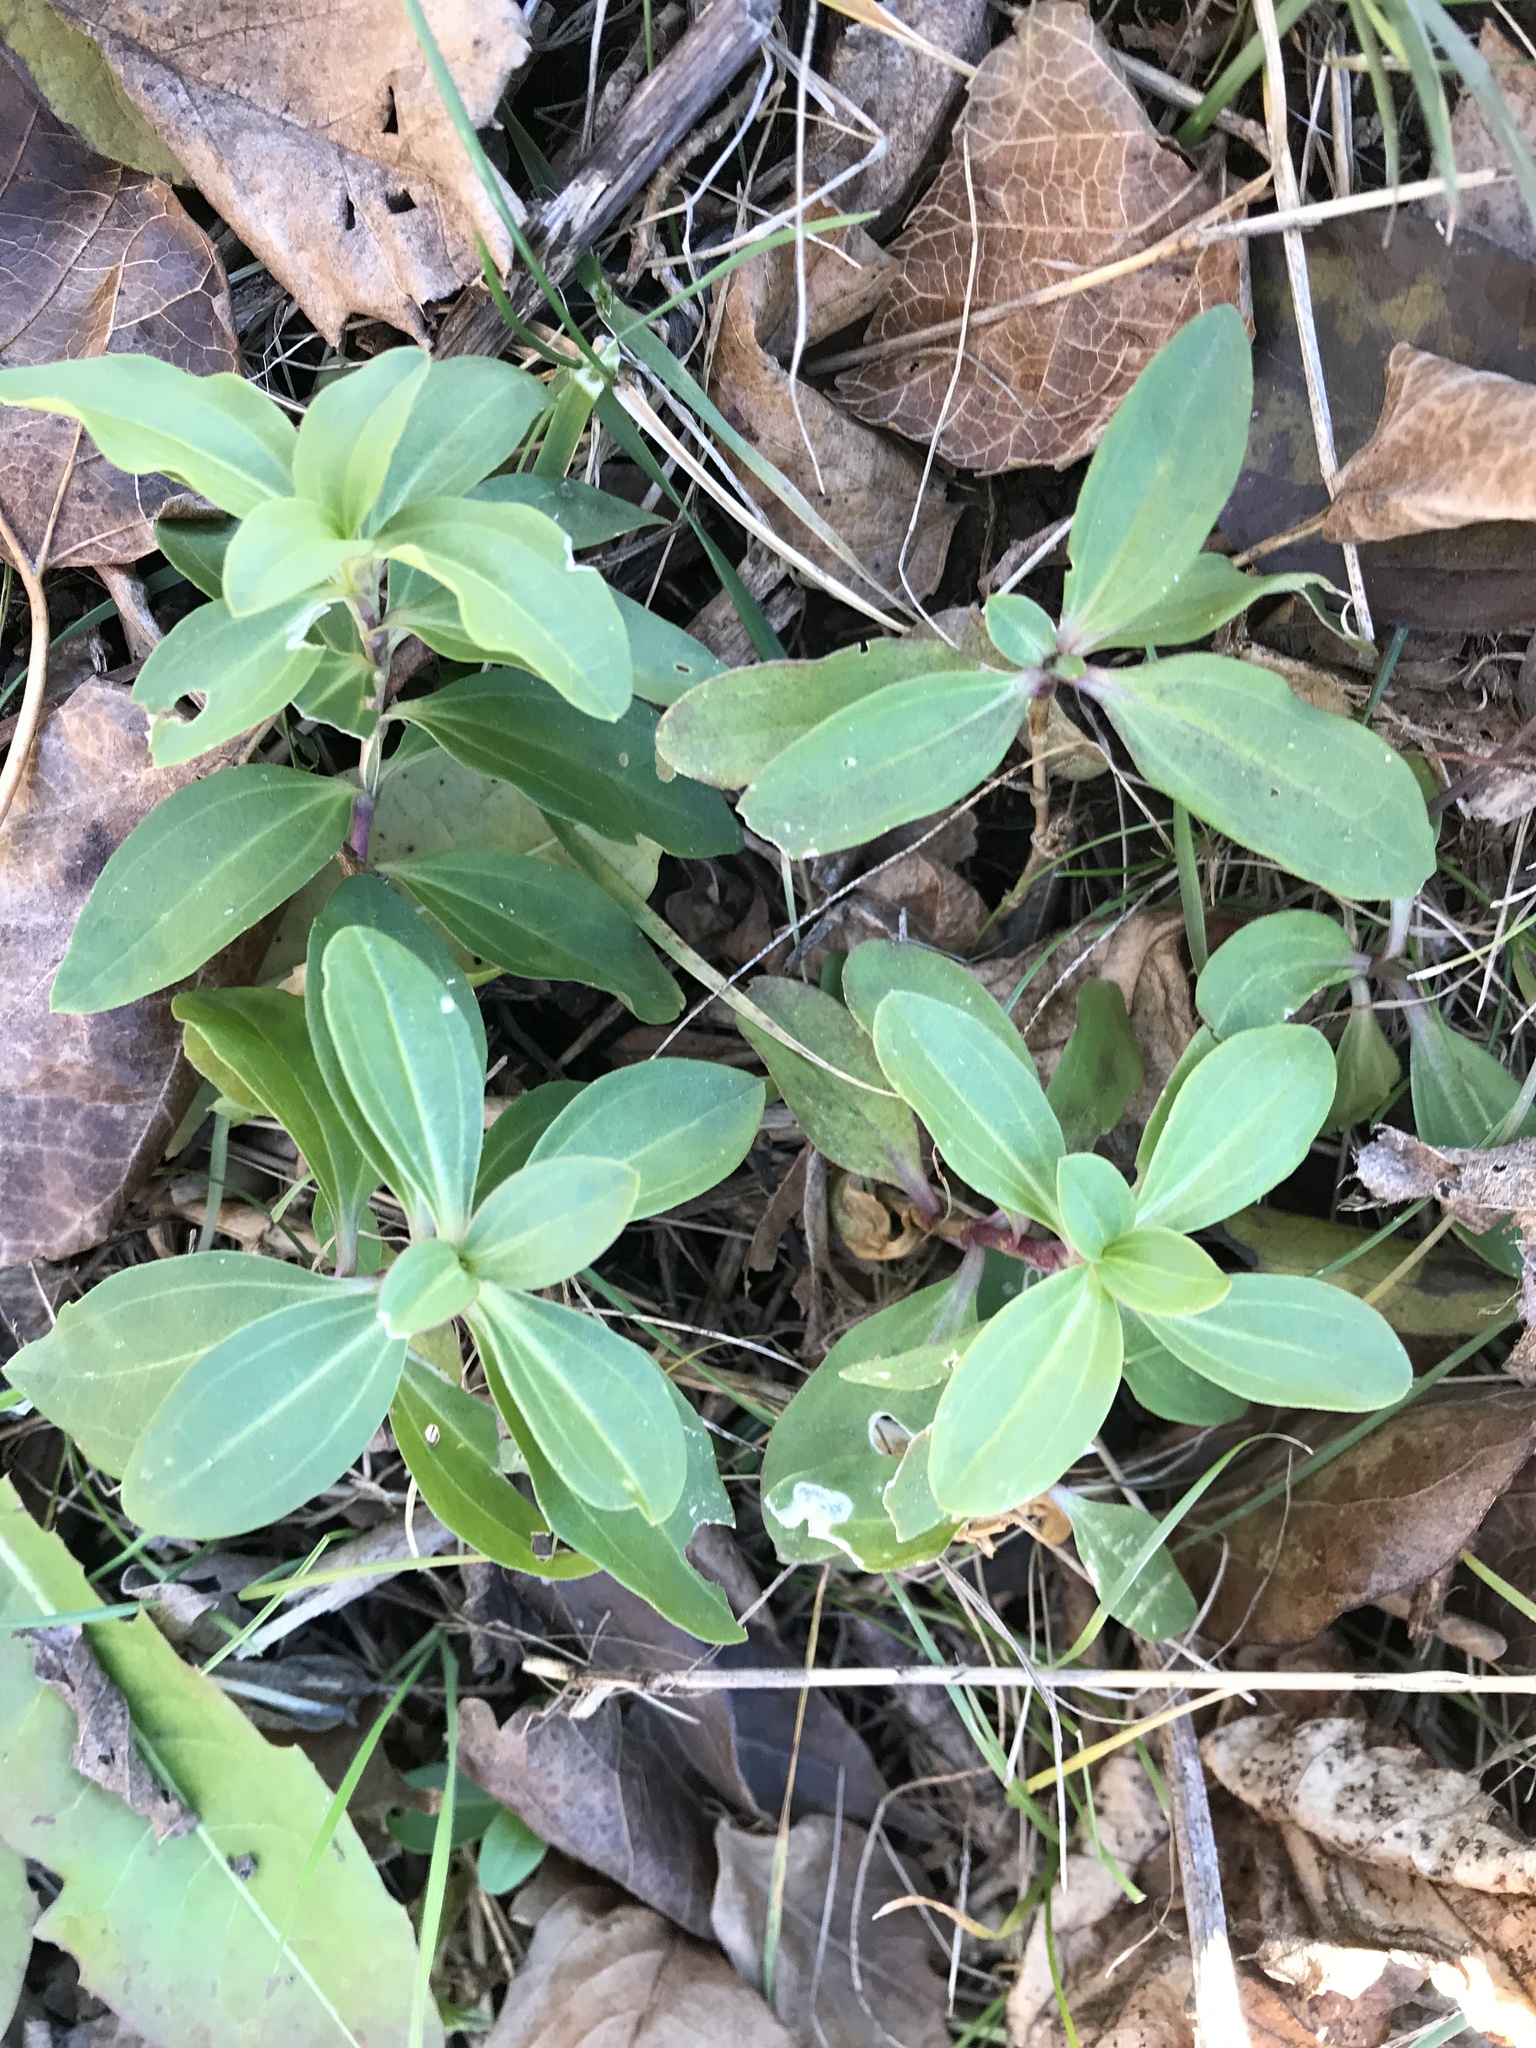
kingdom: Plantae
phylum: Tracheophyta
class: Magnoliopsida
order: Caryophyllales
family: Caryophyllaceae
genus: Saponaria
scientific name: Saponaria officinalis
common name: Soapwort
